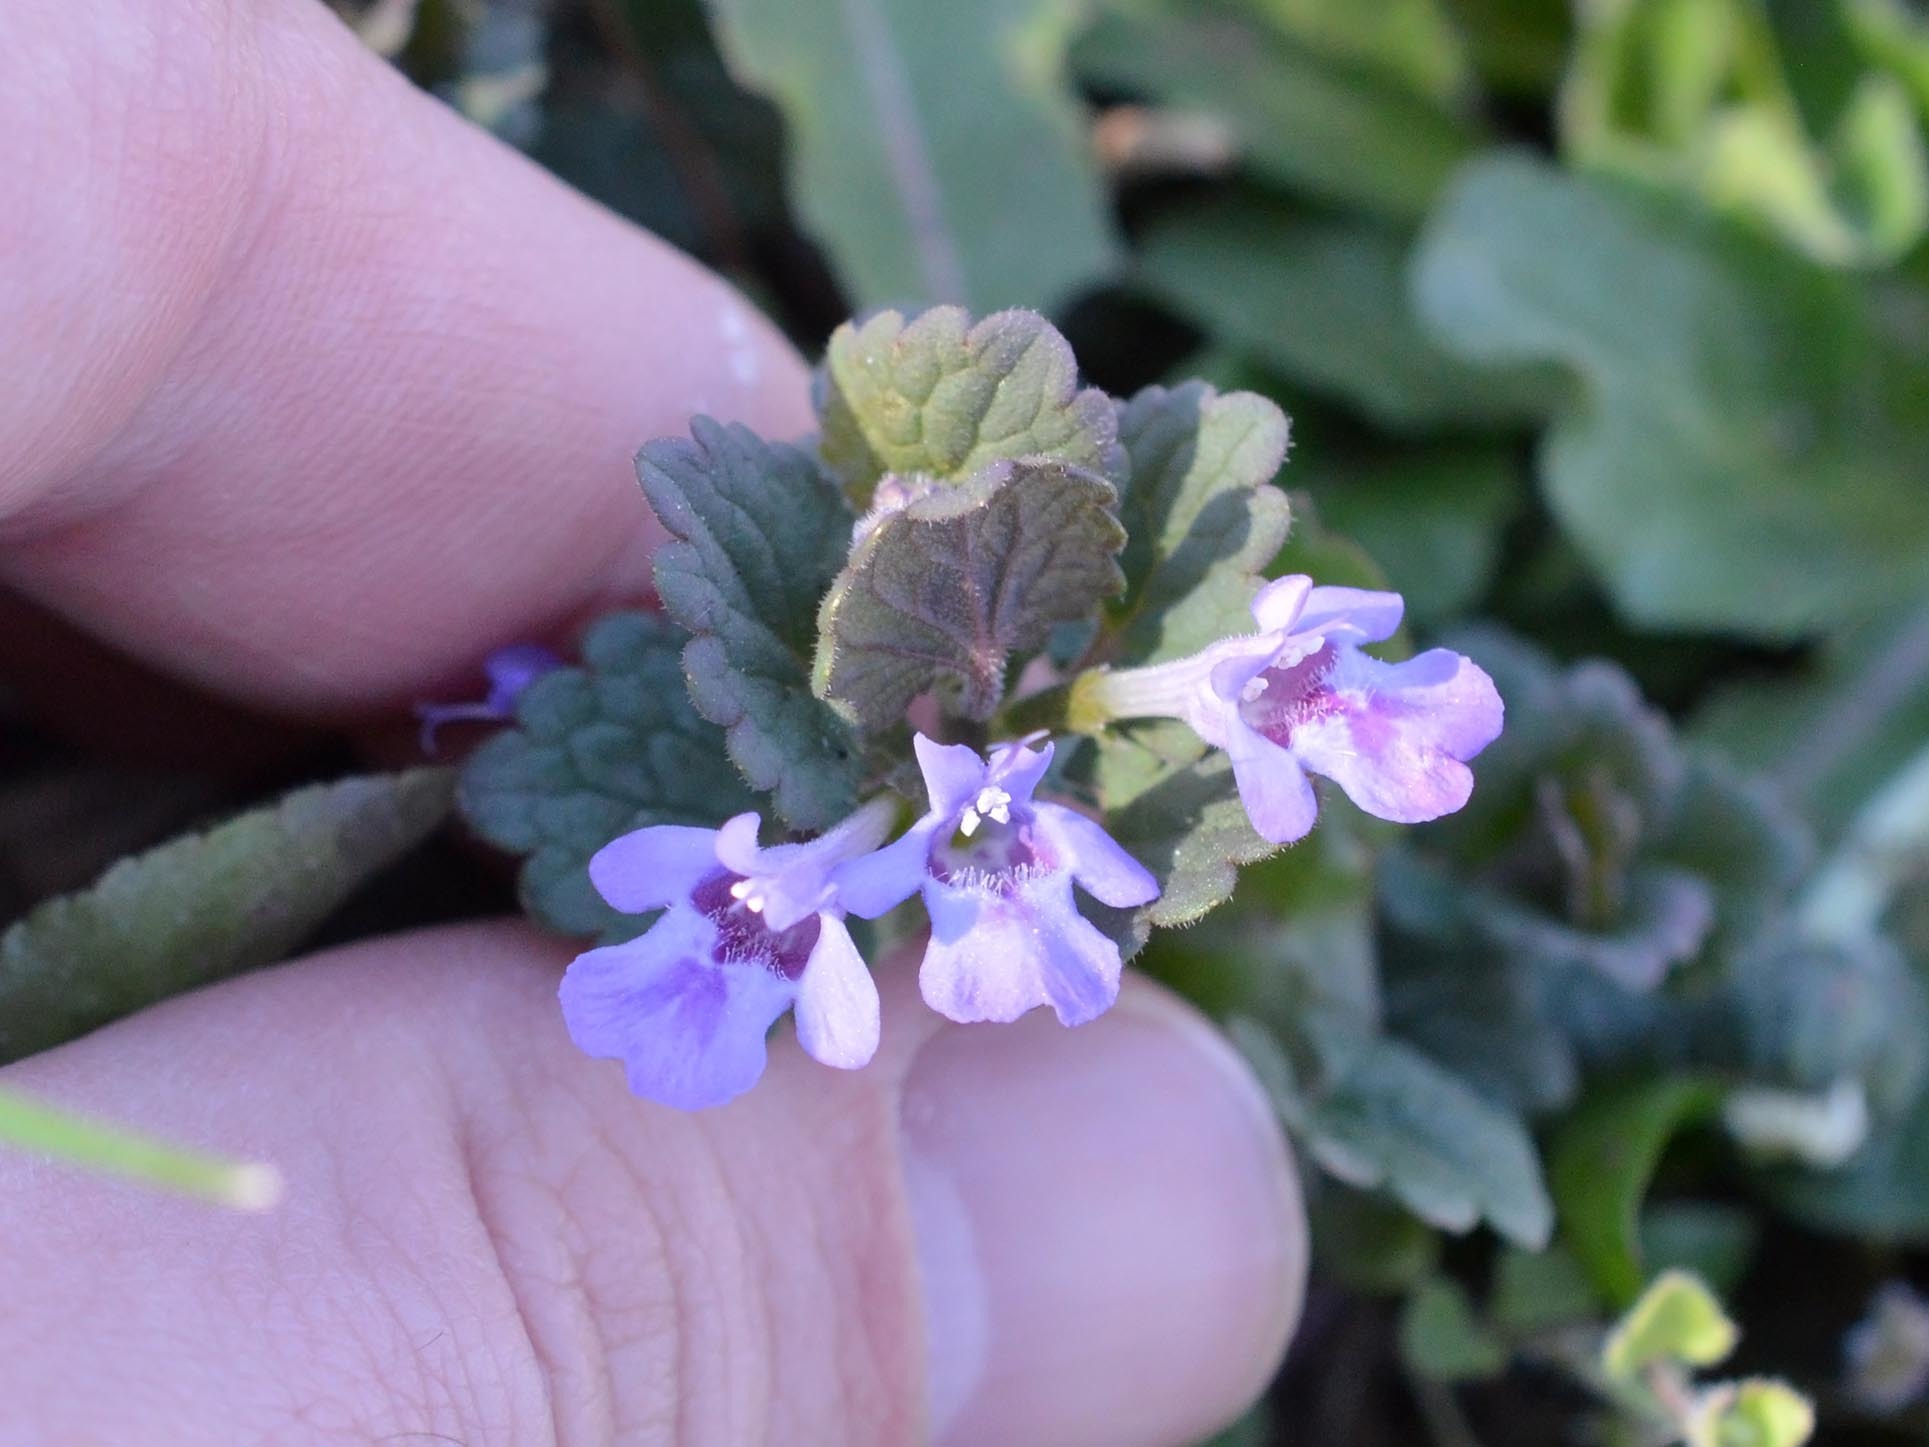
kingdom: Plantae
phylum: Tracheophyta
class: Magnoliopsida
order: Lamiales
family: Lamiaceae
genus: Glechoma
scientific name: Glechoma hederacea
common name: Ground ivy
